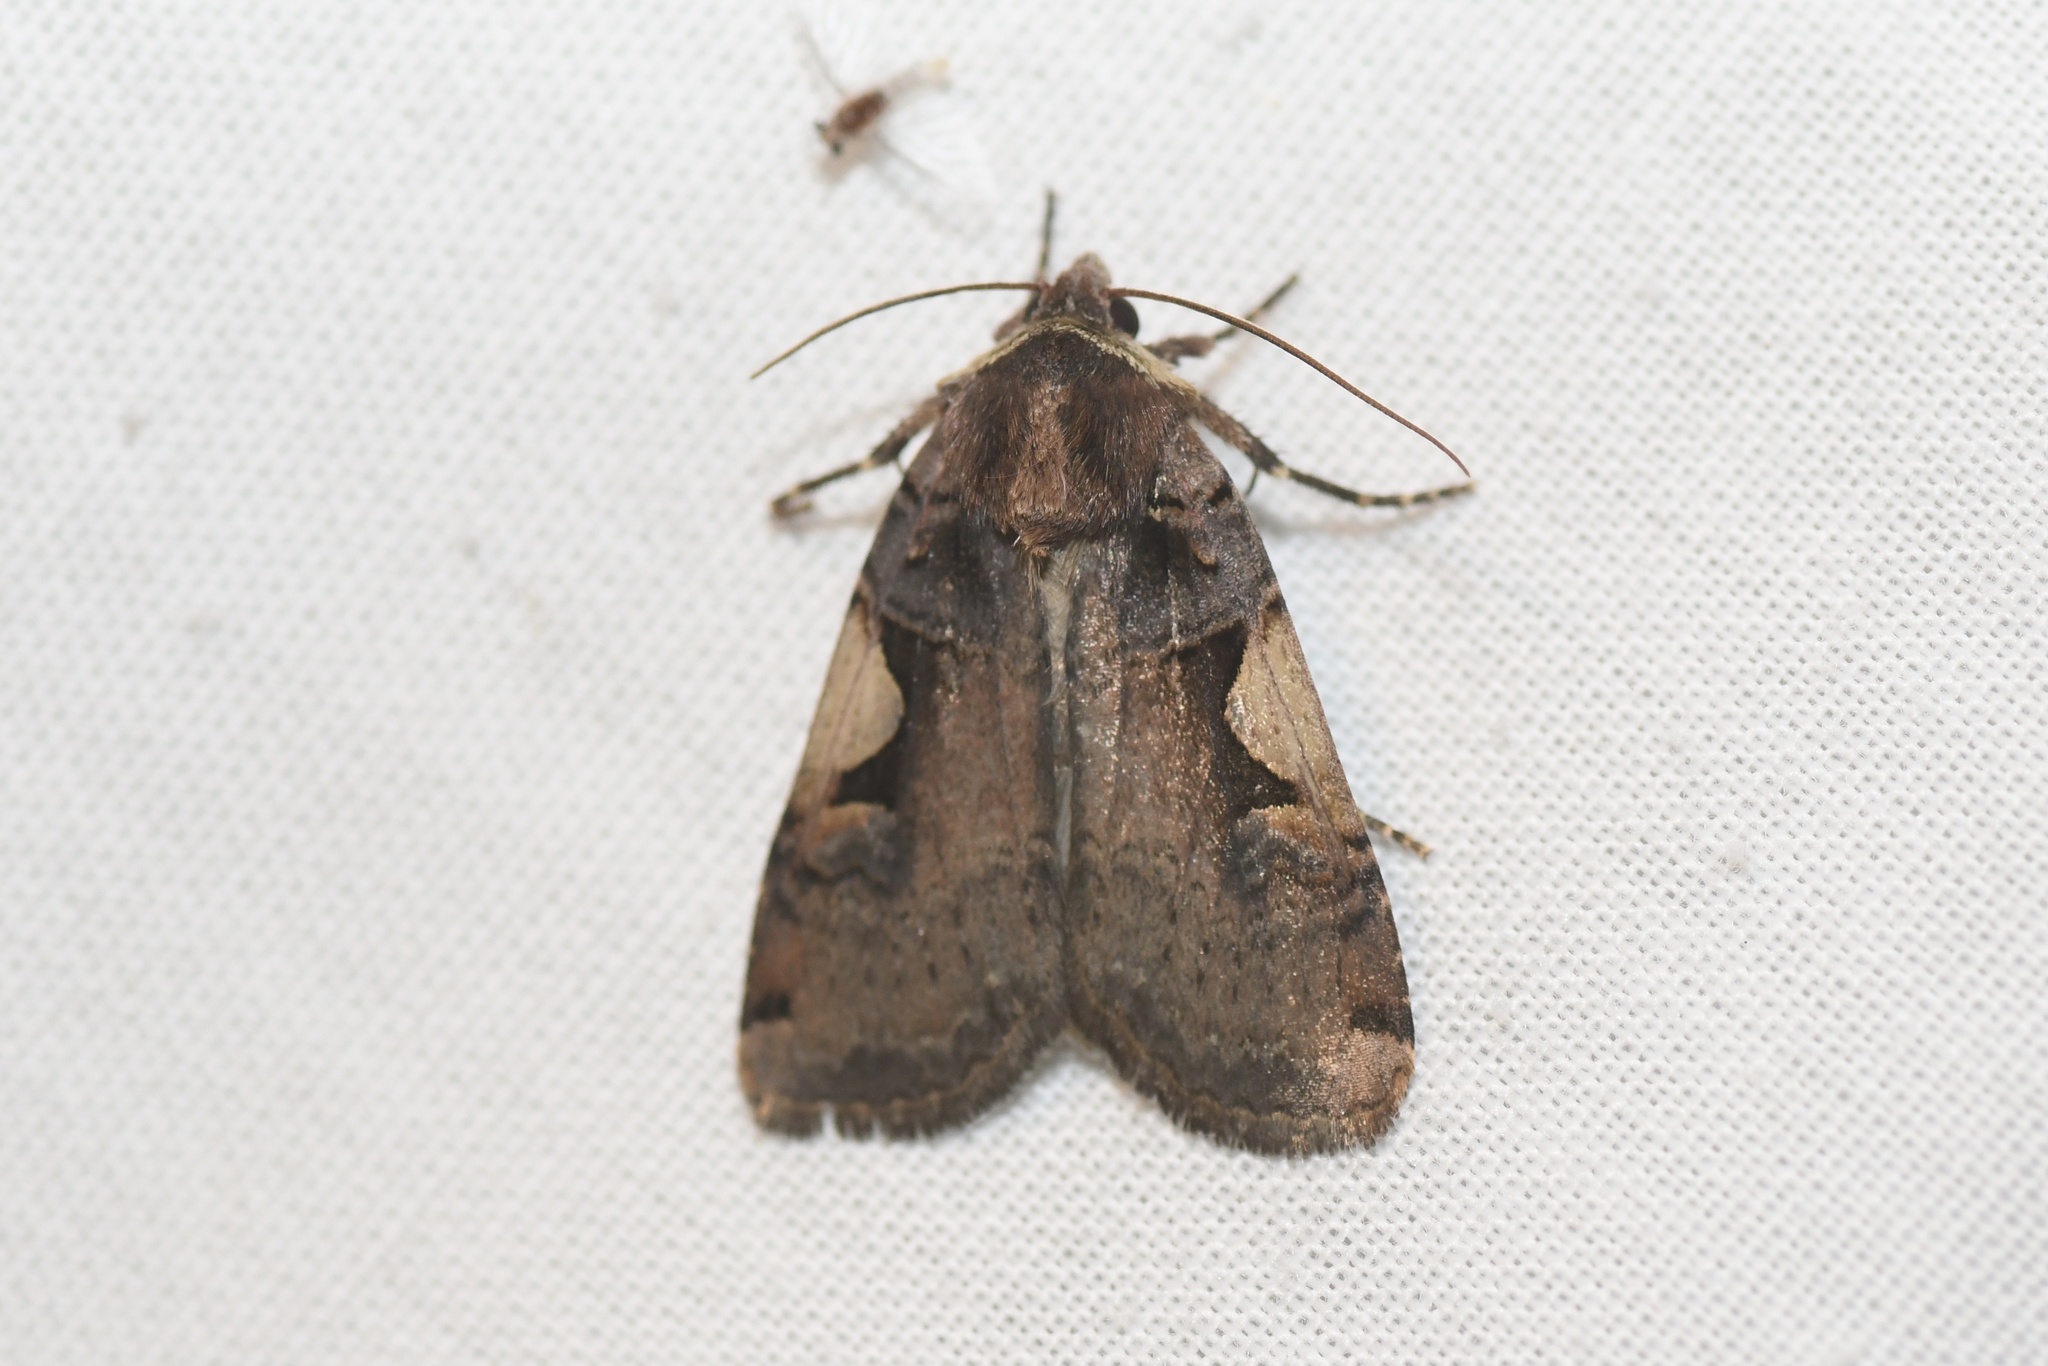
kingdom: Animalia
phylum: Arthropoda
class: Insecta
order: Lepidoptera
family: Noctuidae
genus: Xestia
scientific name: Xestia
